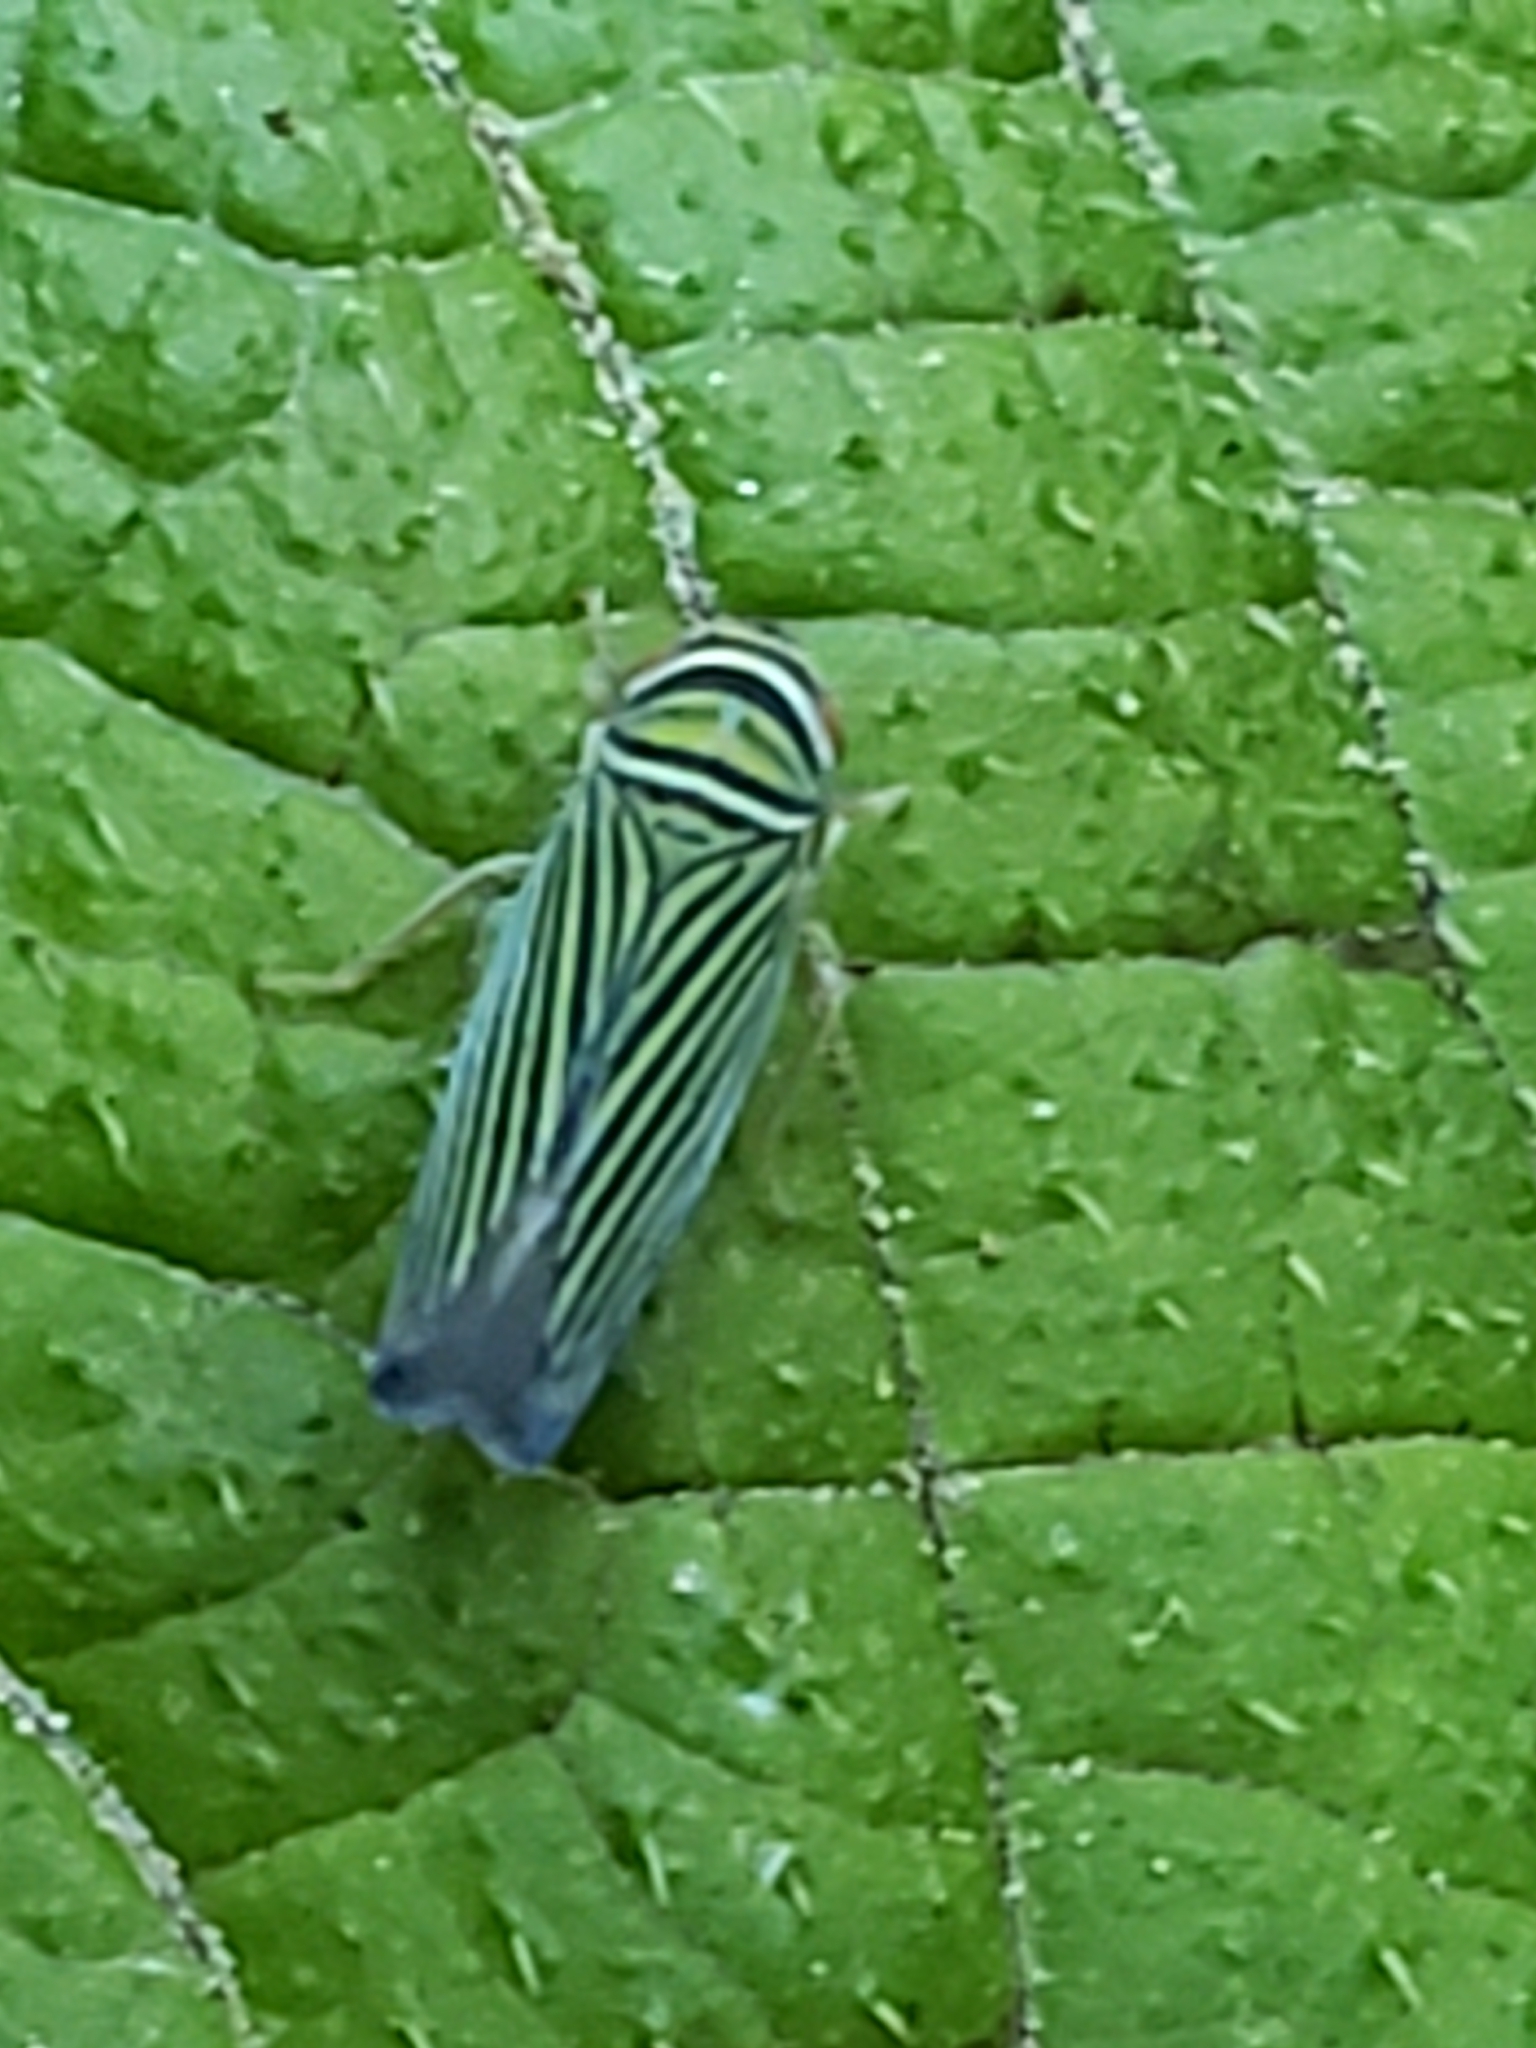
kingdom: Animalia
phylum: Arthropoda
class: Insecta
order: Hemiptera
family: Cicadellidae
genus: Tylozygus
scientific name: Tylozygus bifidus
